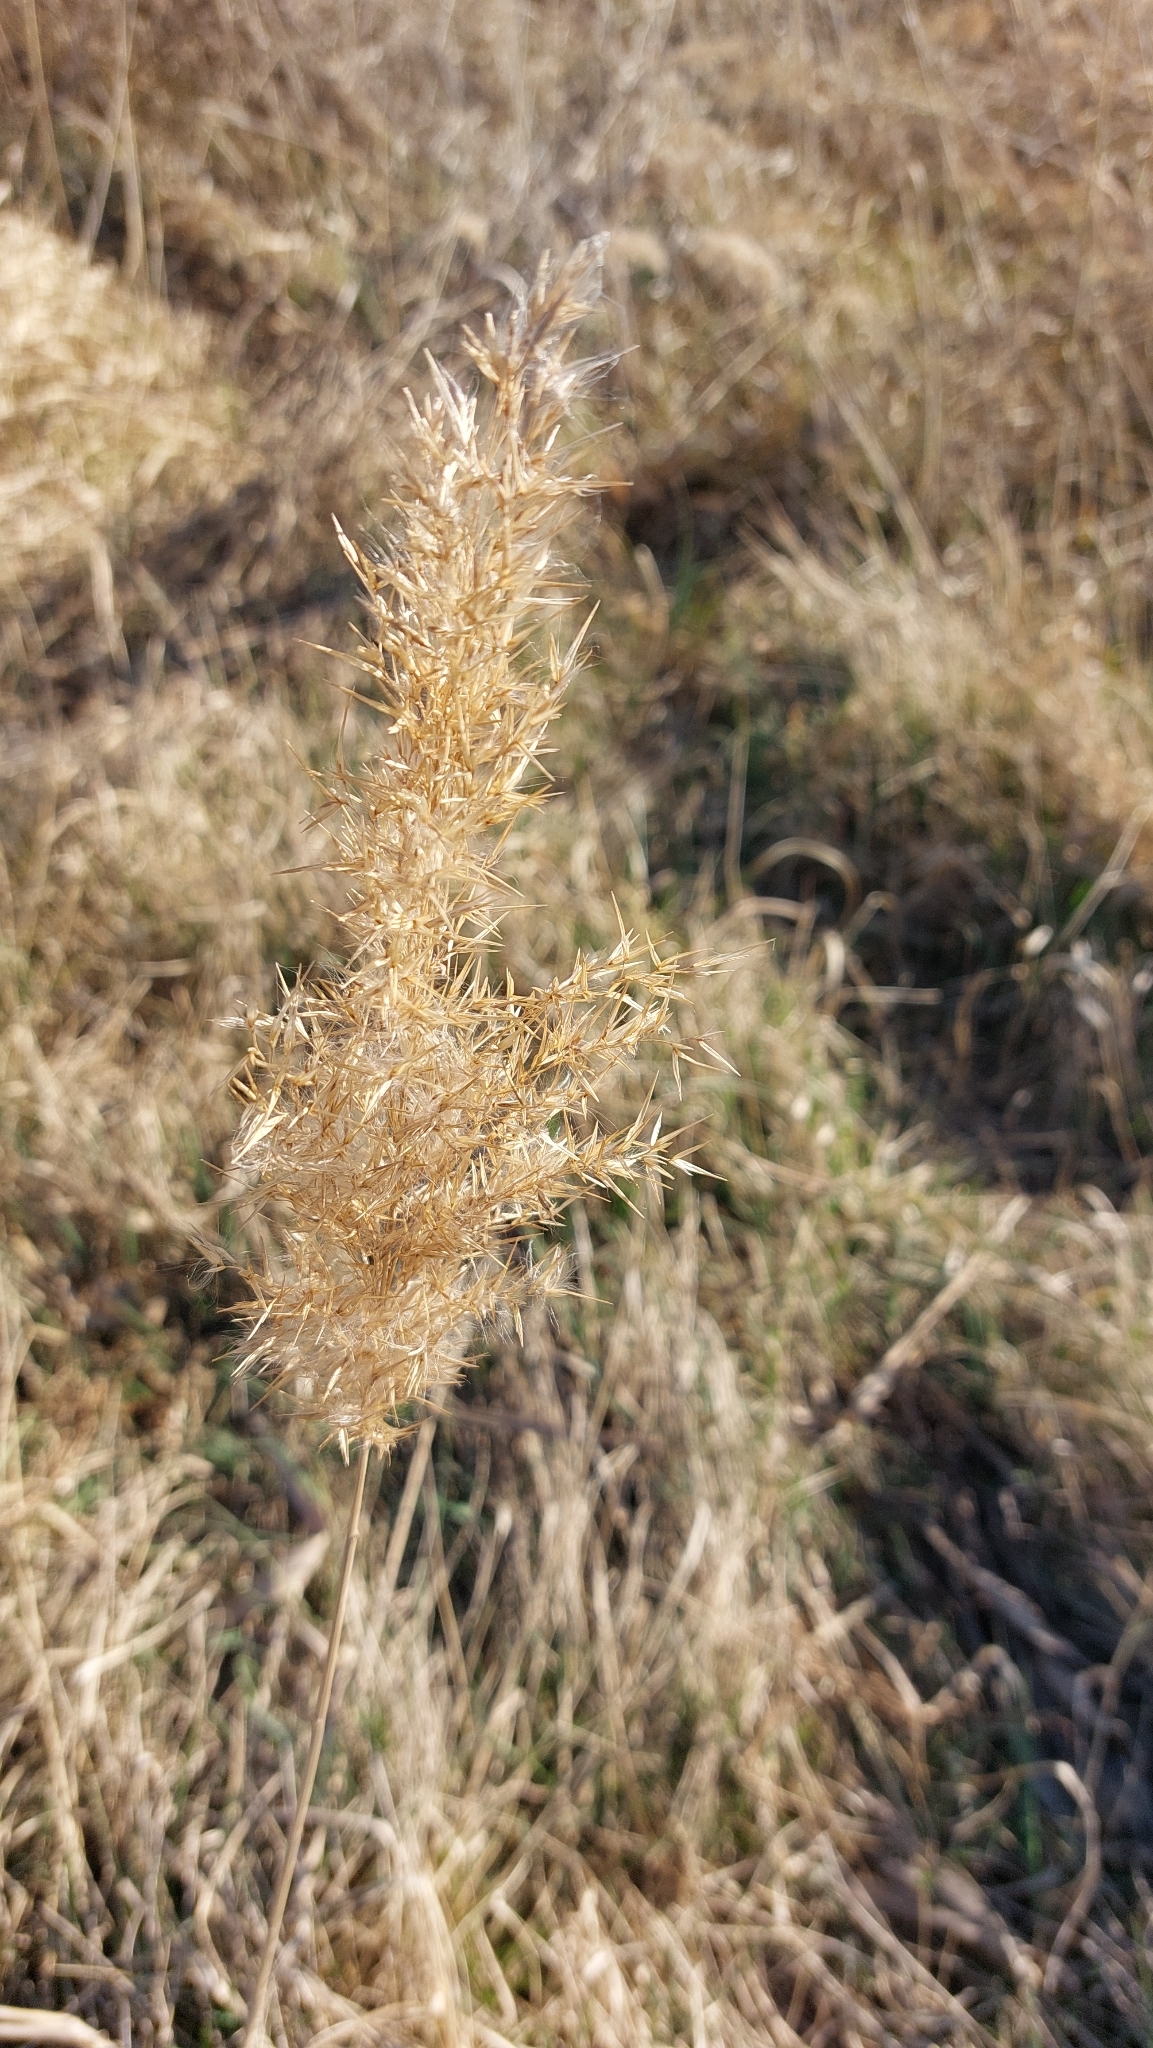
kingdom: Plantae
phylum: Tracheophyta
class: Liliopsida
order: Poales
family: Poaceae
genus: Phragmites
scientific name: Phragmites australis
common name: Common reed
